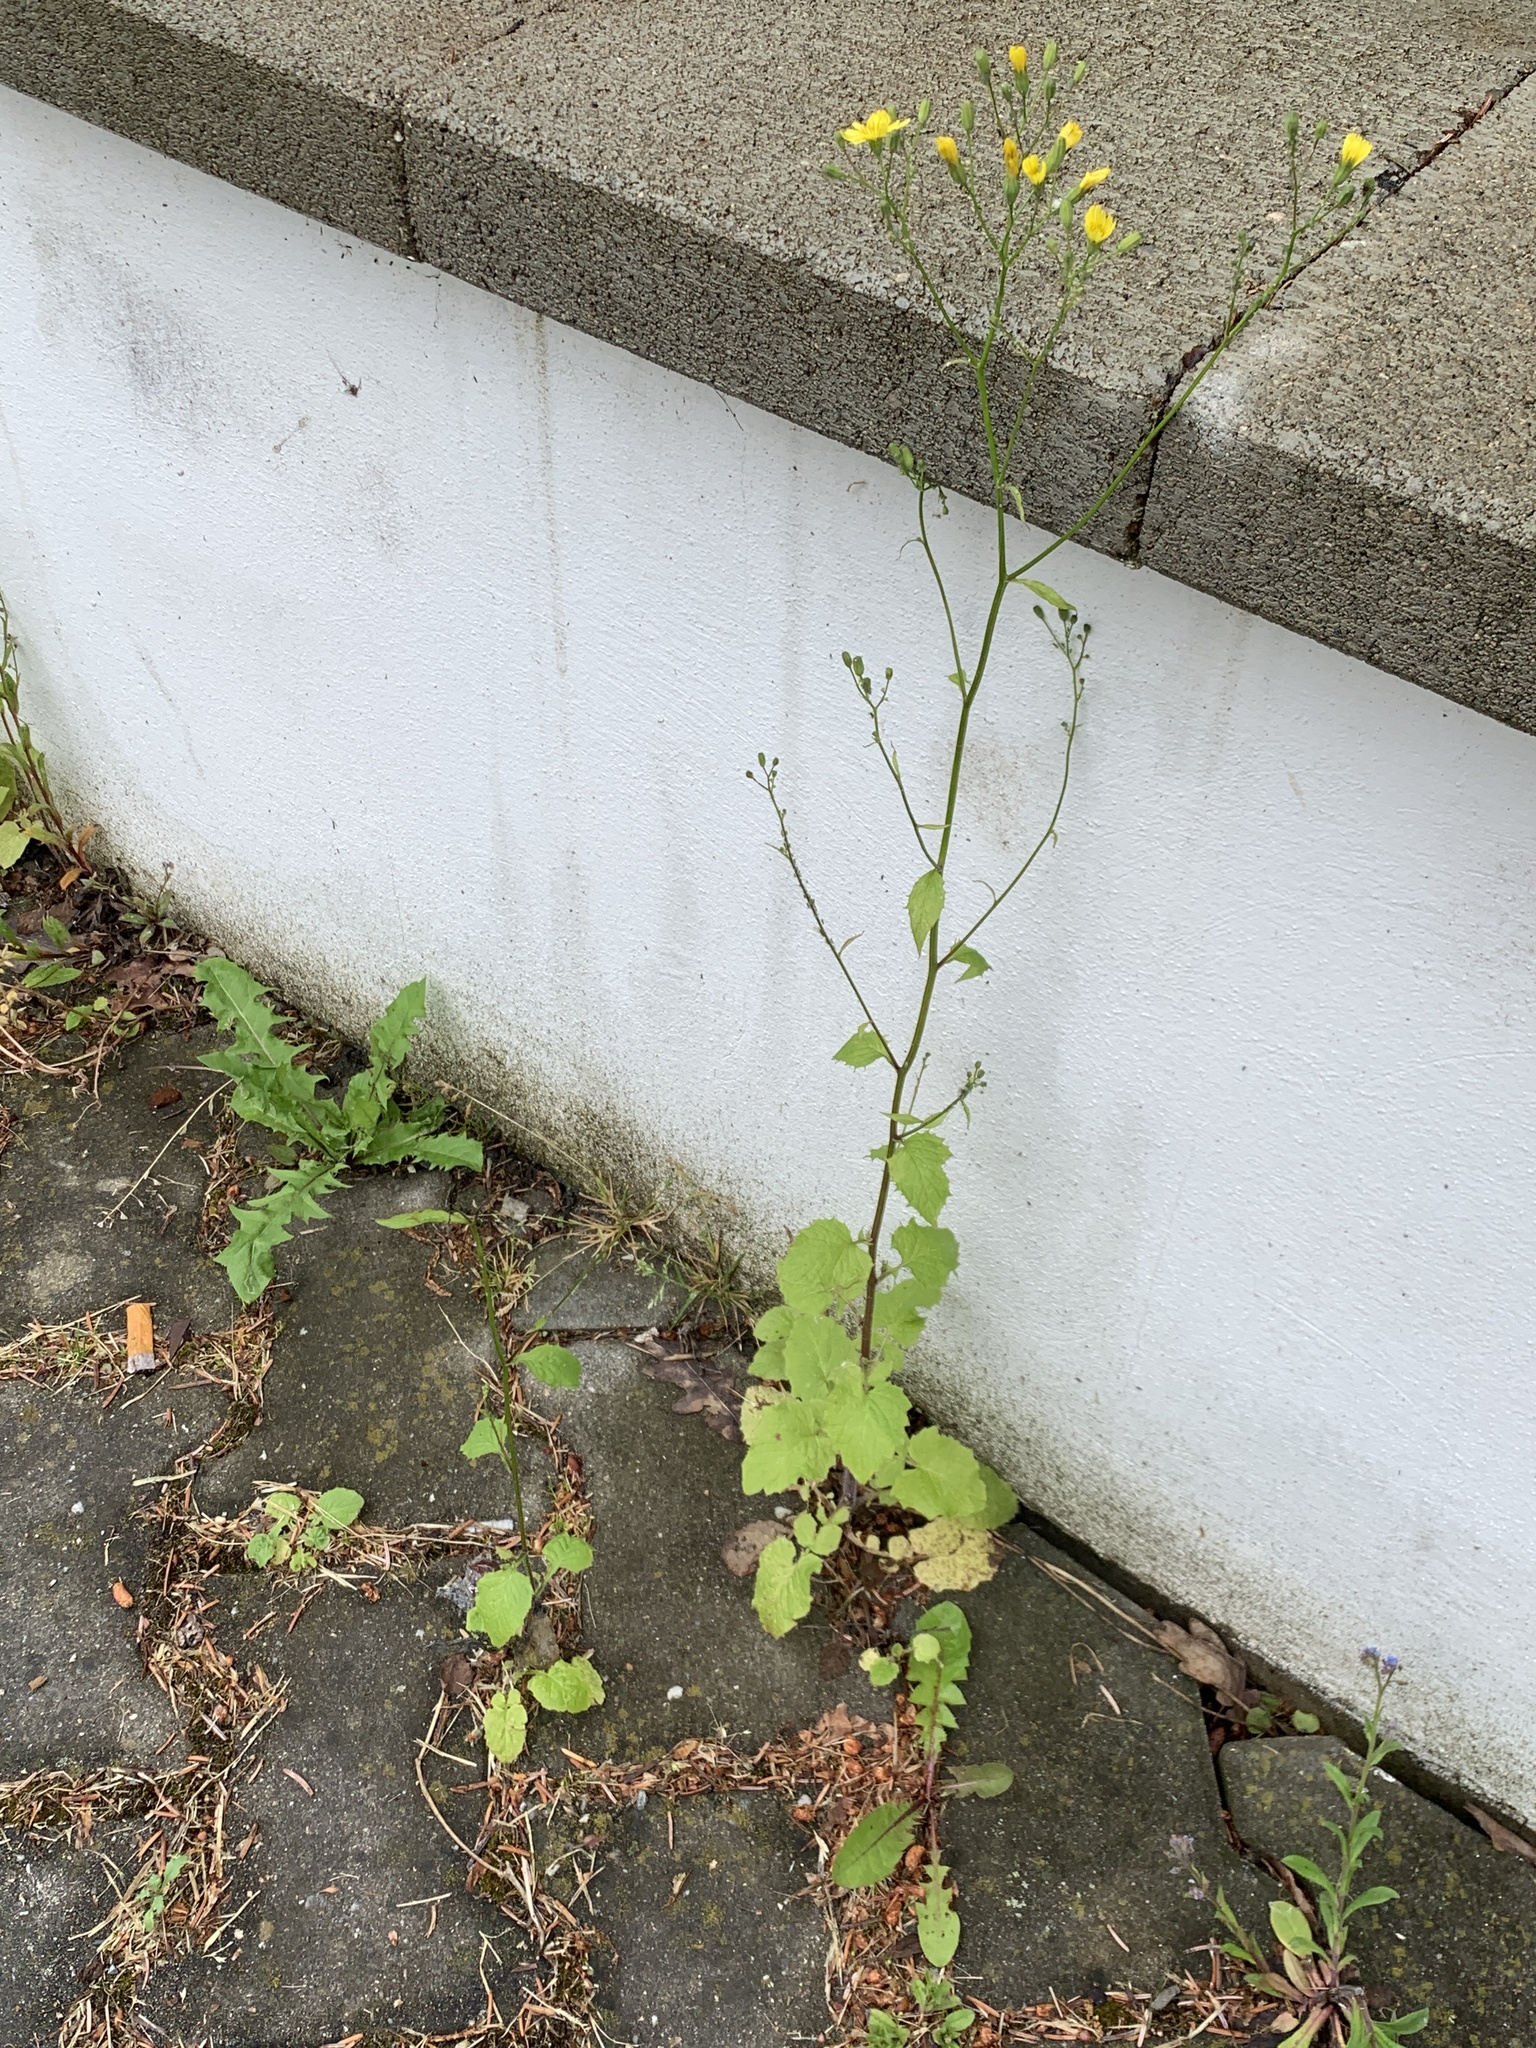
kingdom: Plantae
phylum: Tracheophyta
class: Magnoliopsida
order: Asterales
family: Asteraceae
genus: Lapsana
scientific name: Lapsana communis
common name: Nipplewort
